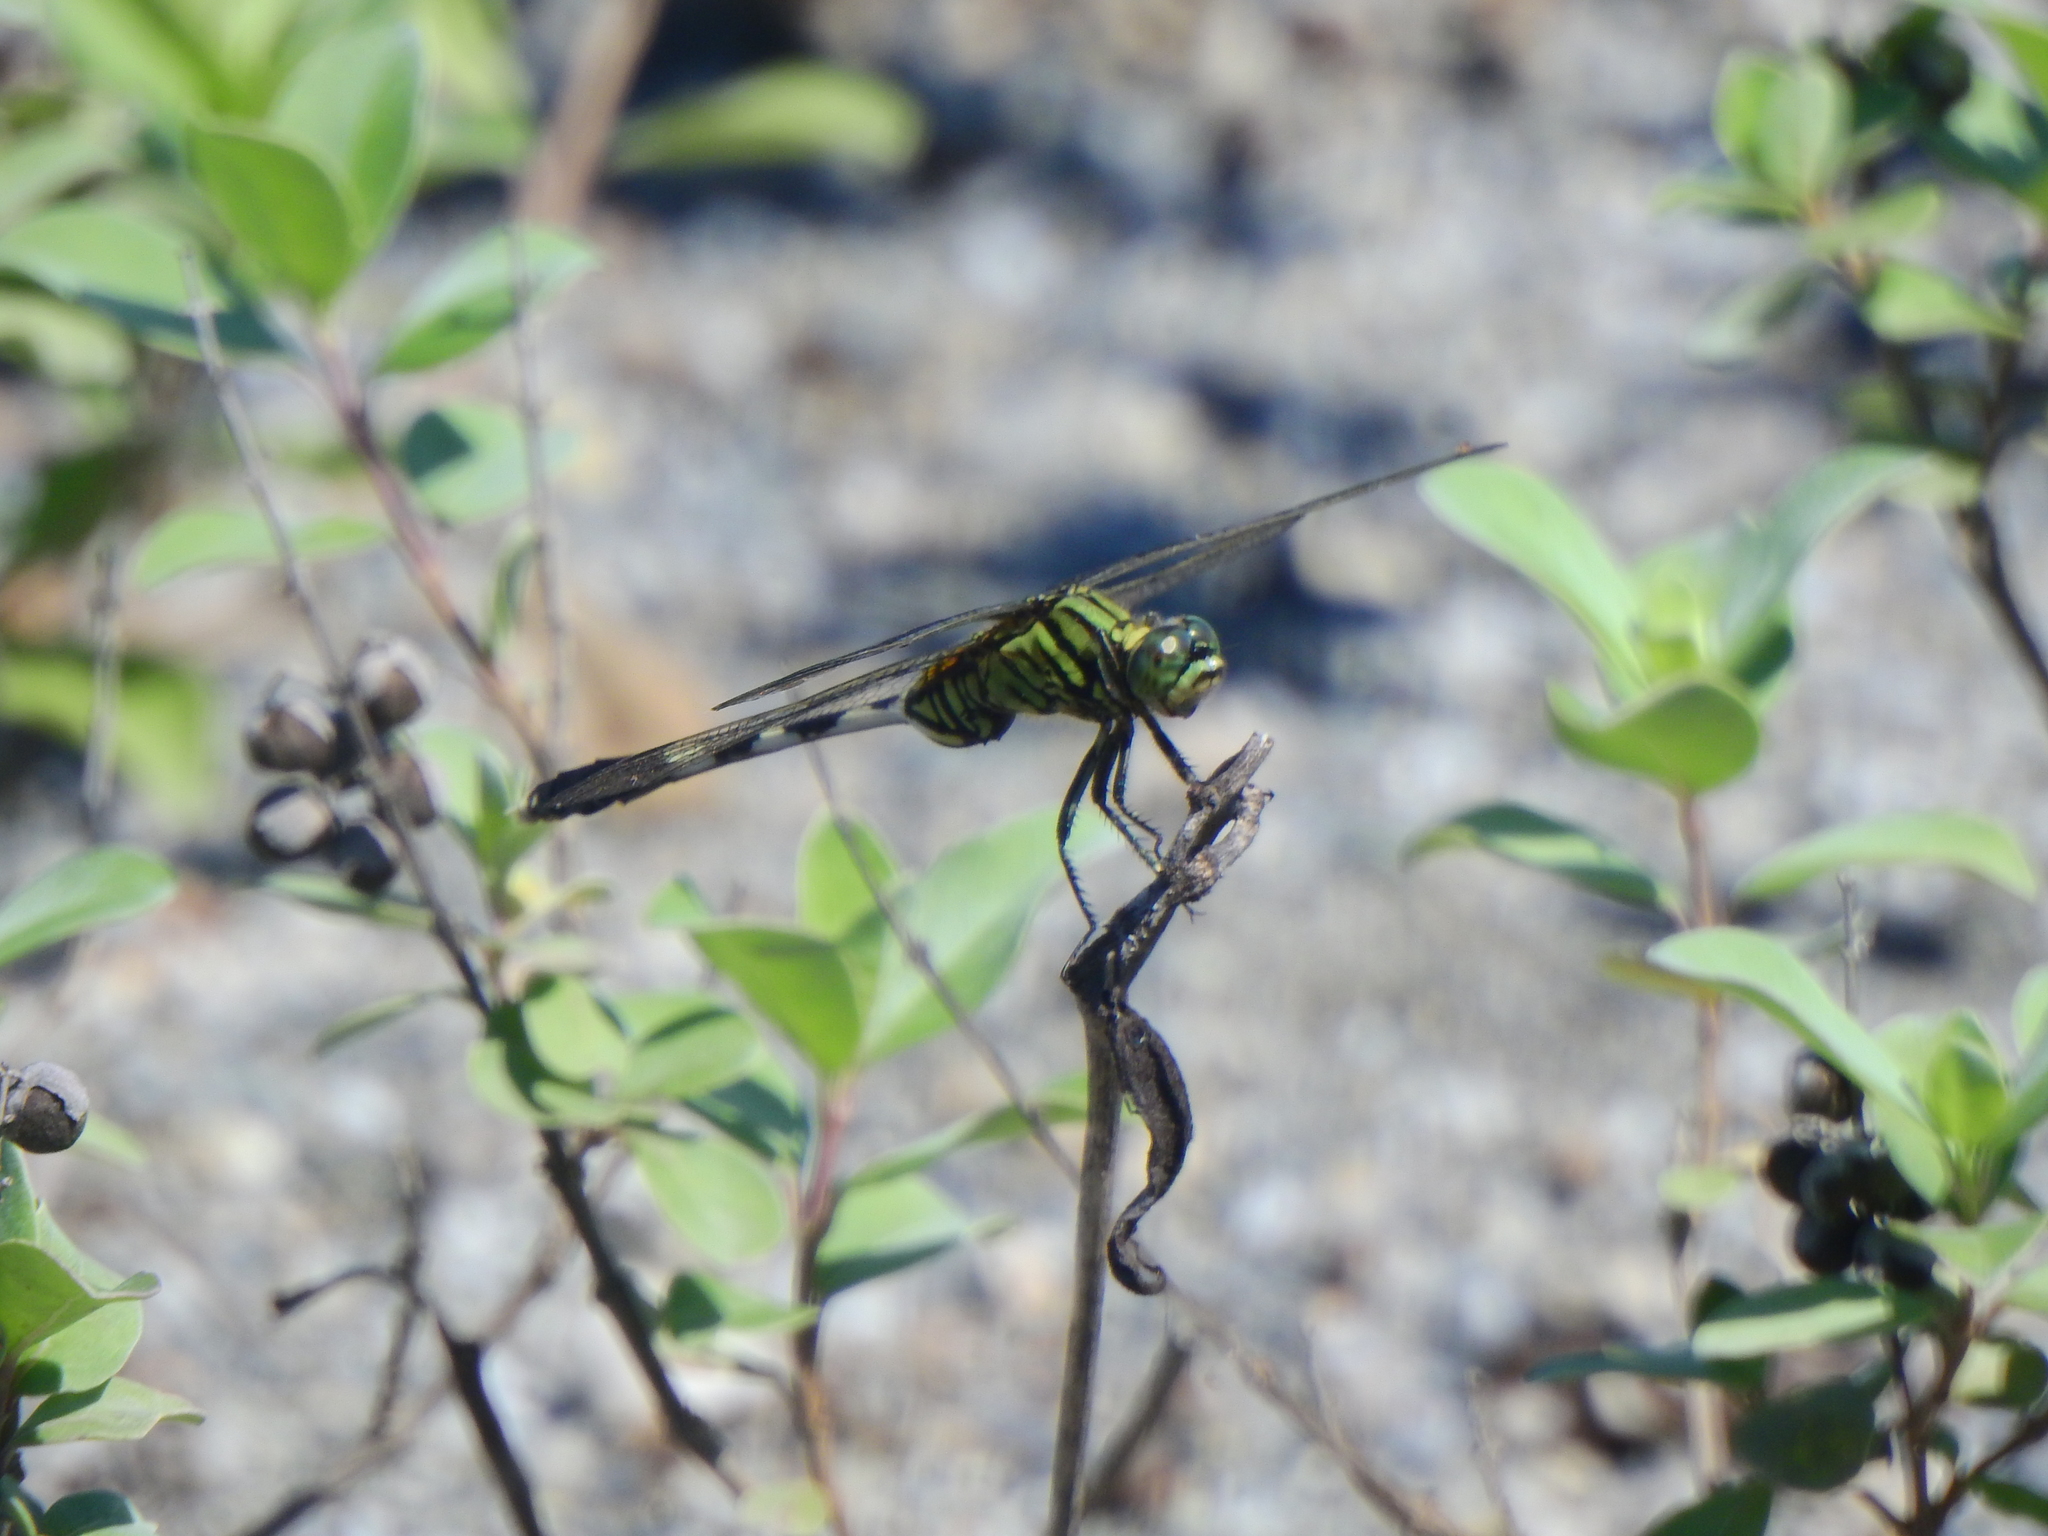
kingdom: Animalia
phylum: Arthropoda
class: Insecta
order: Odonata
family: Libellulidae
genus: Orthetrum
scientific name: Orthetrum sabina
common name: Slender skimmer
